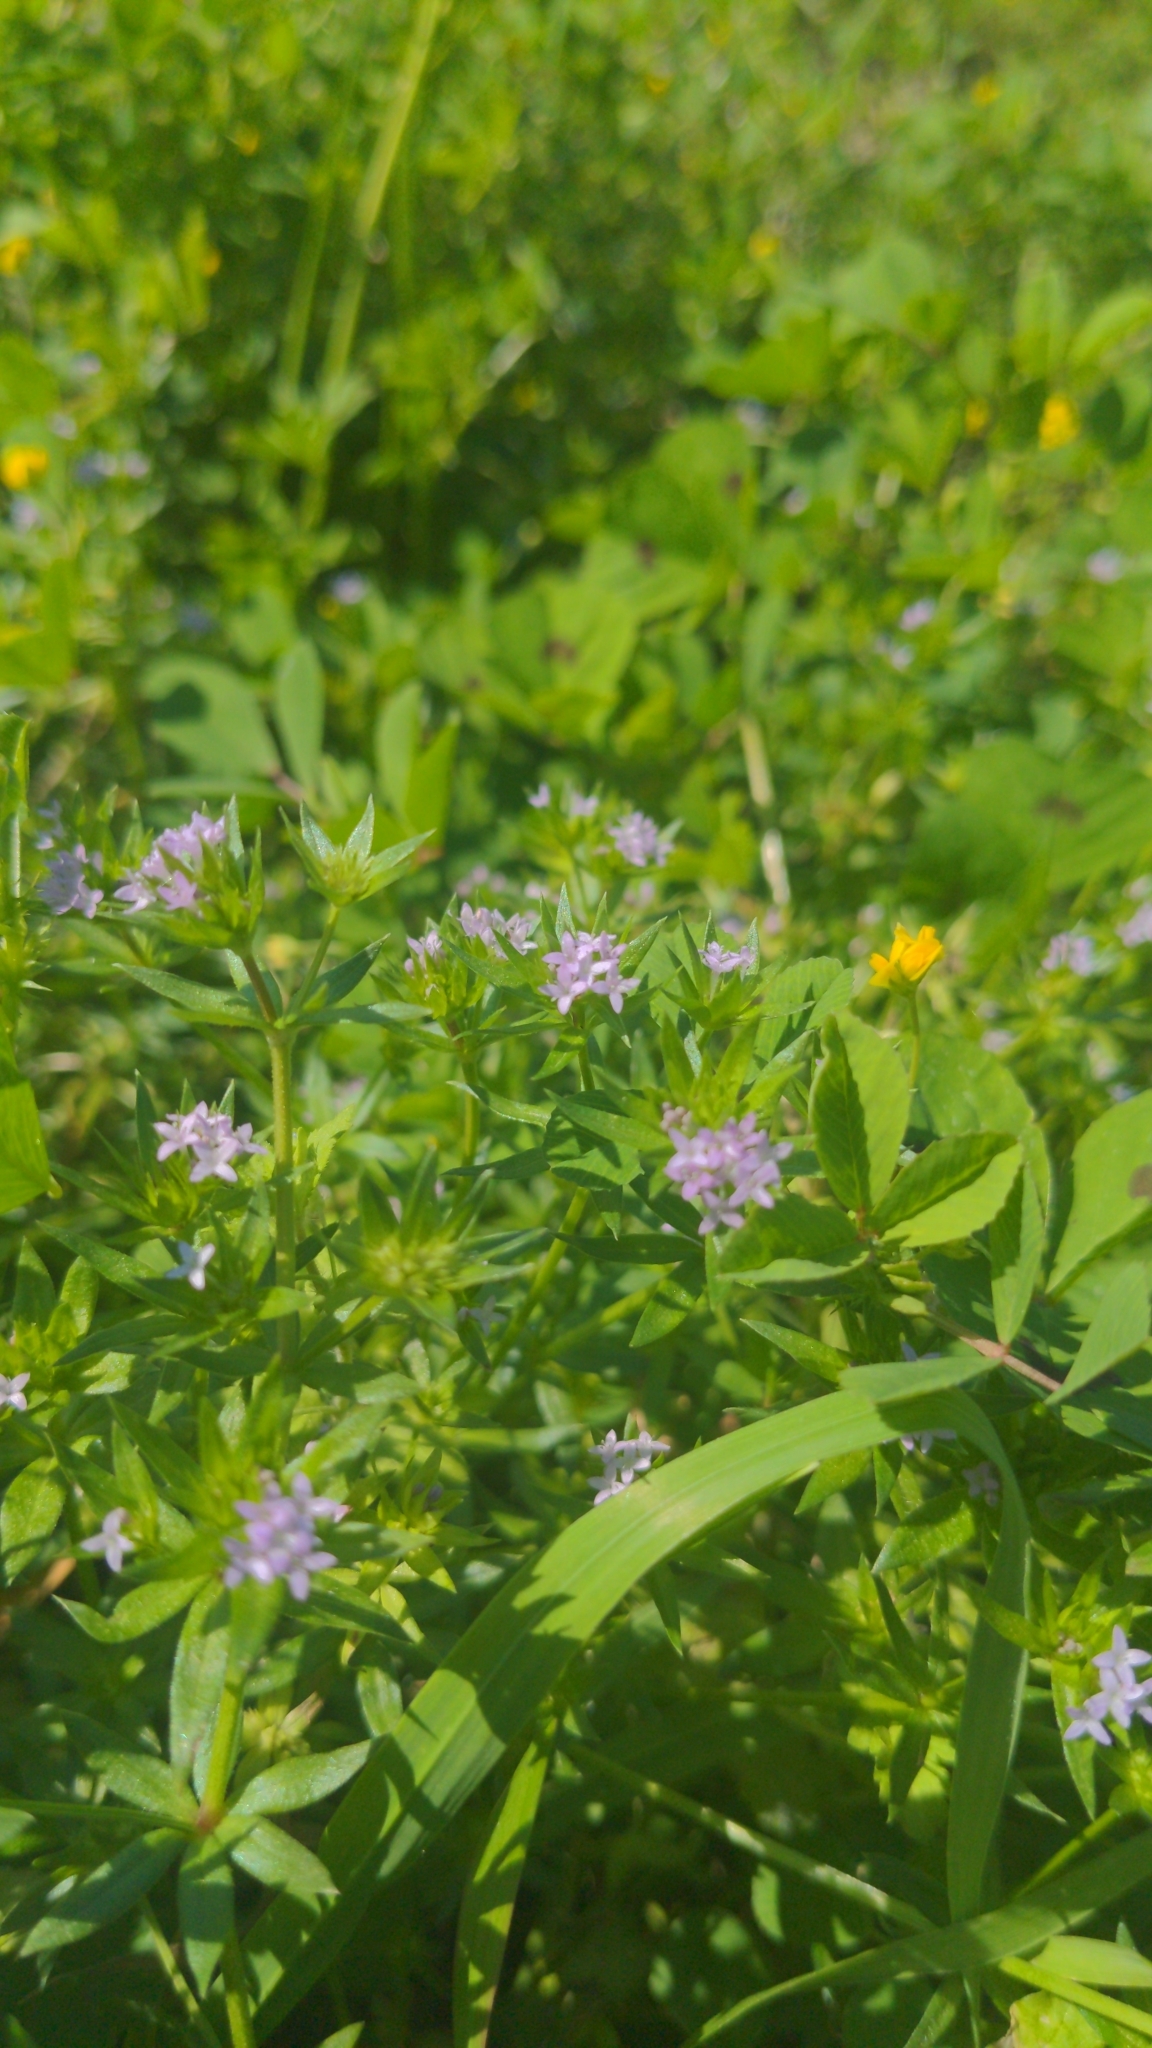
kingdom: Plantae
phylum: Tracheophyta
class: Magnoliopsida
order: Gentianales
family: Rubiaceae
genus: Sherardia
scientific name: Sherardia arvensis
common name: Field madder
